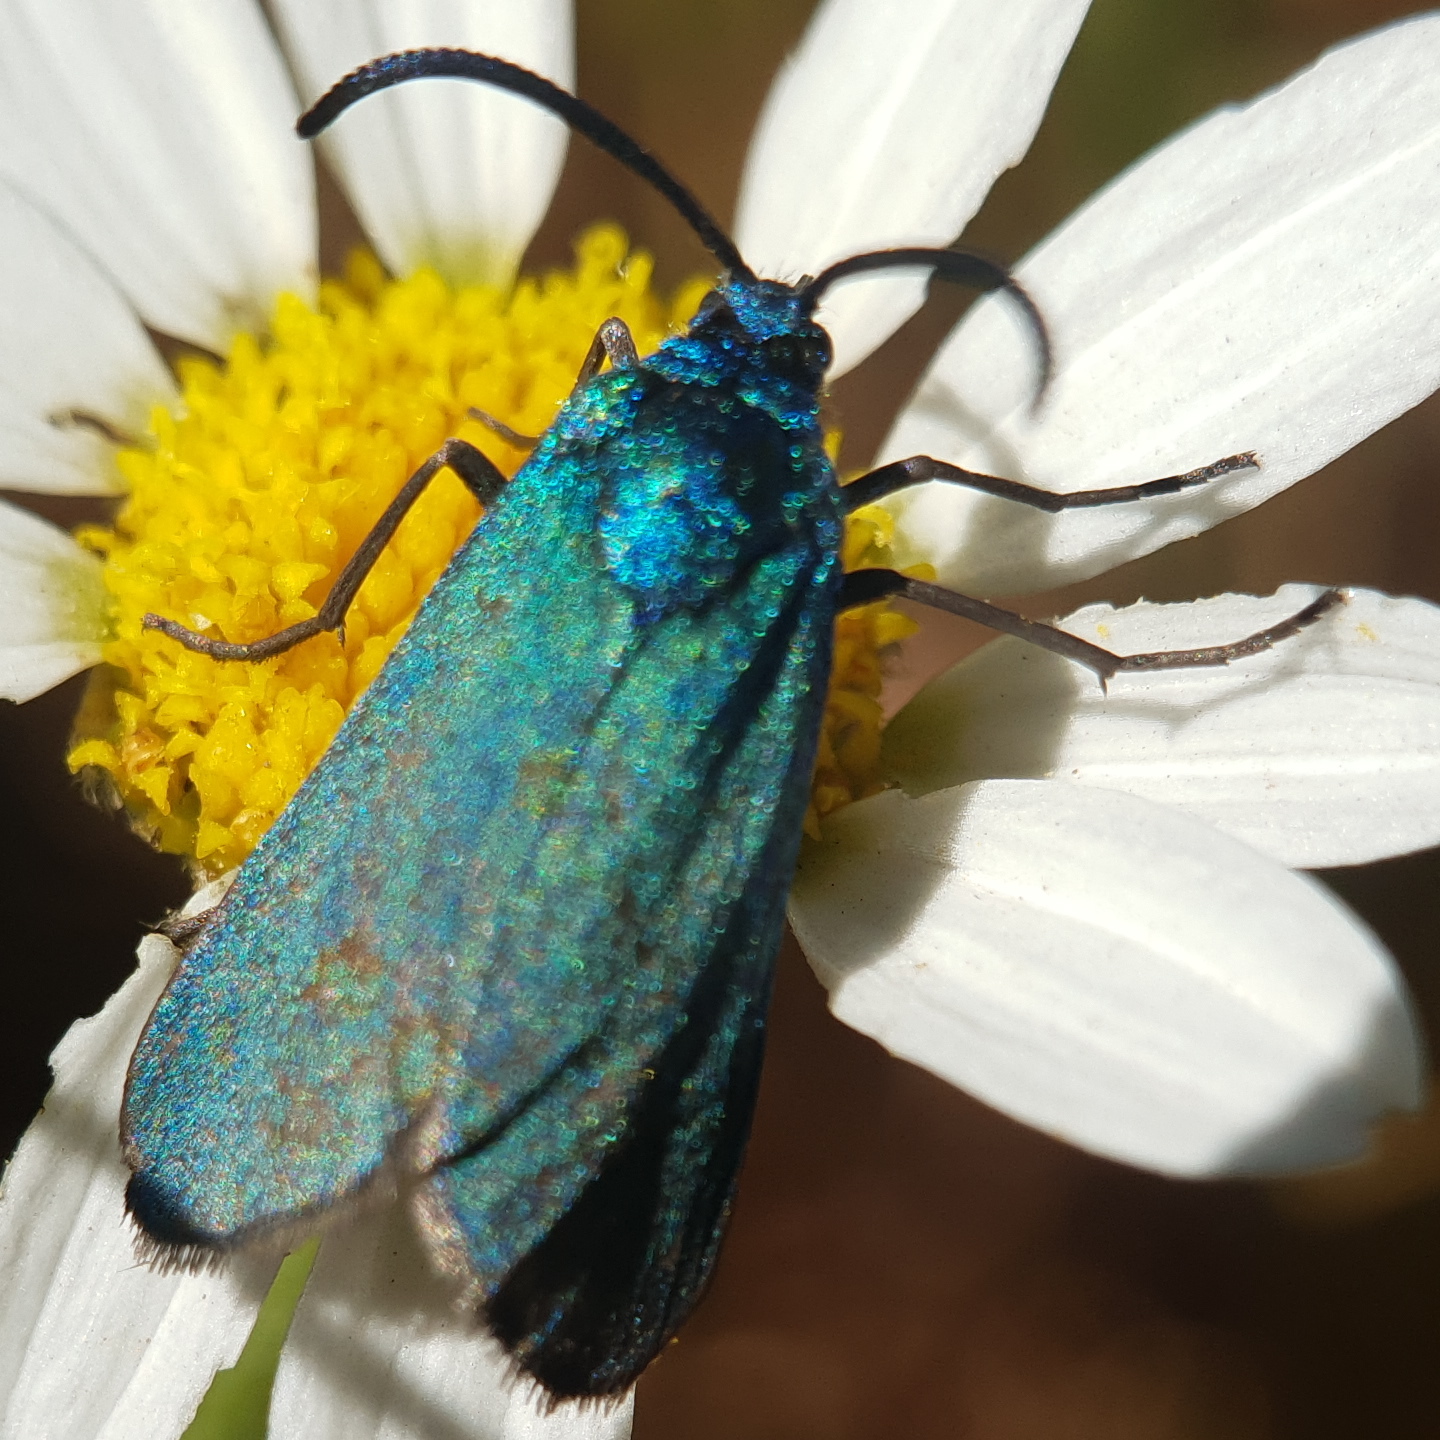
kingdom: Animalia
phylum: Arthropoda
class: Insecta
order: Lepidoptera
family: Zygaenidae
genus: Adscita
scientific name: Adscita statices
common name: Forester
